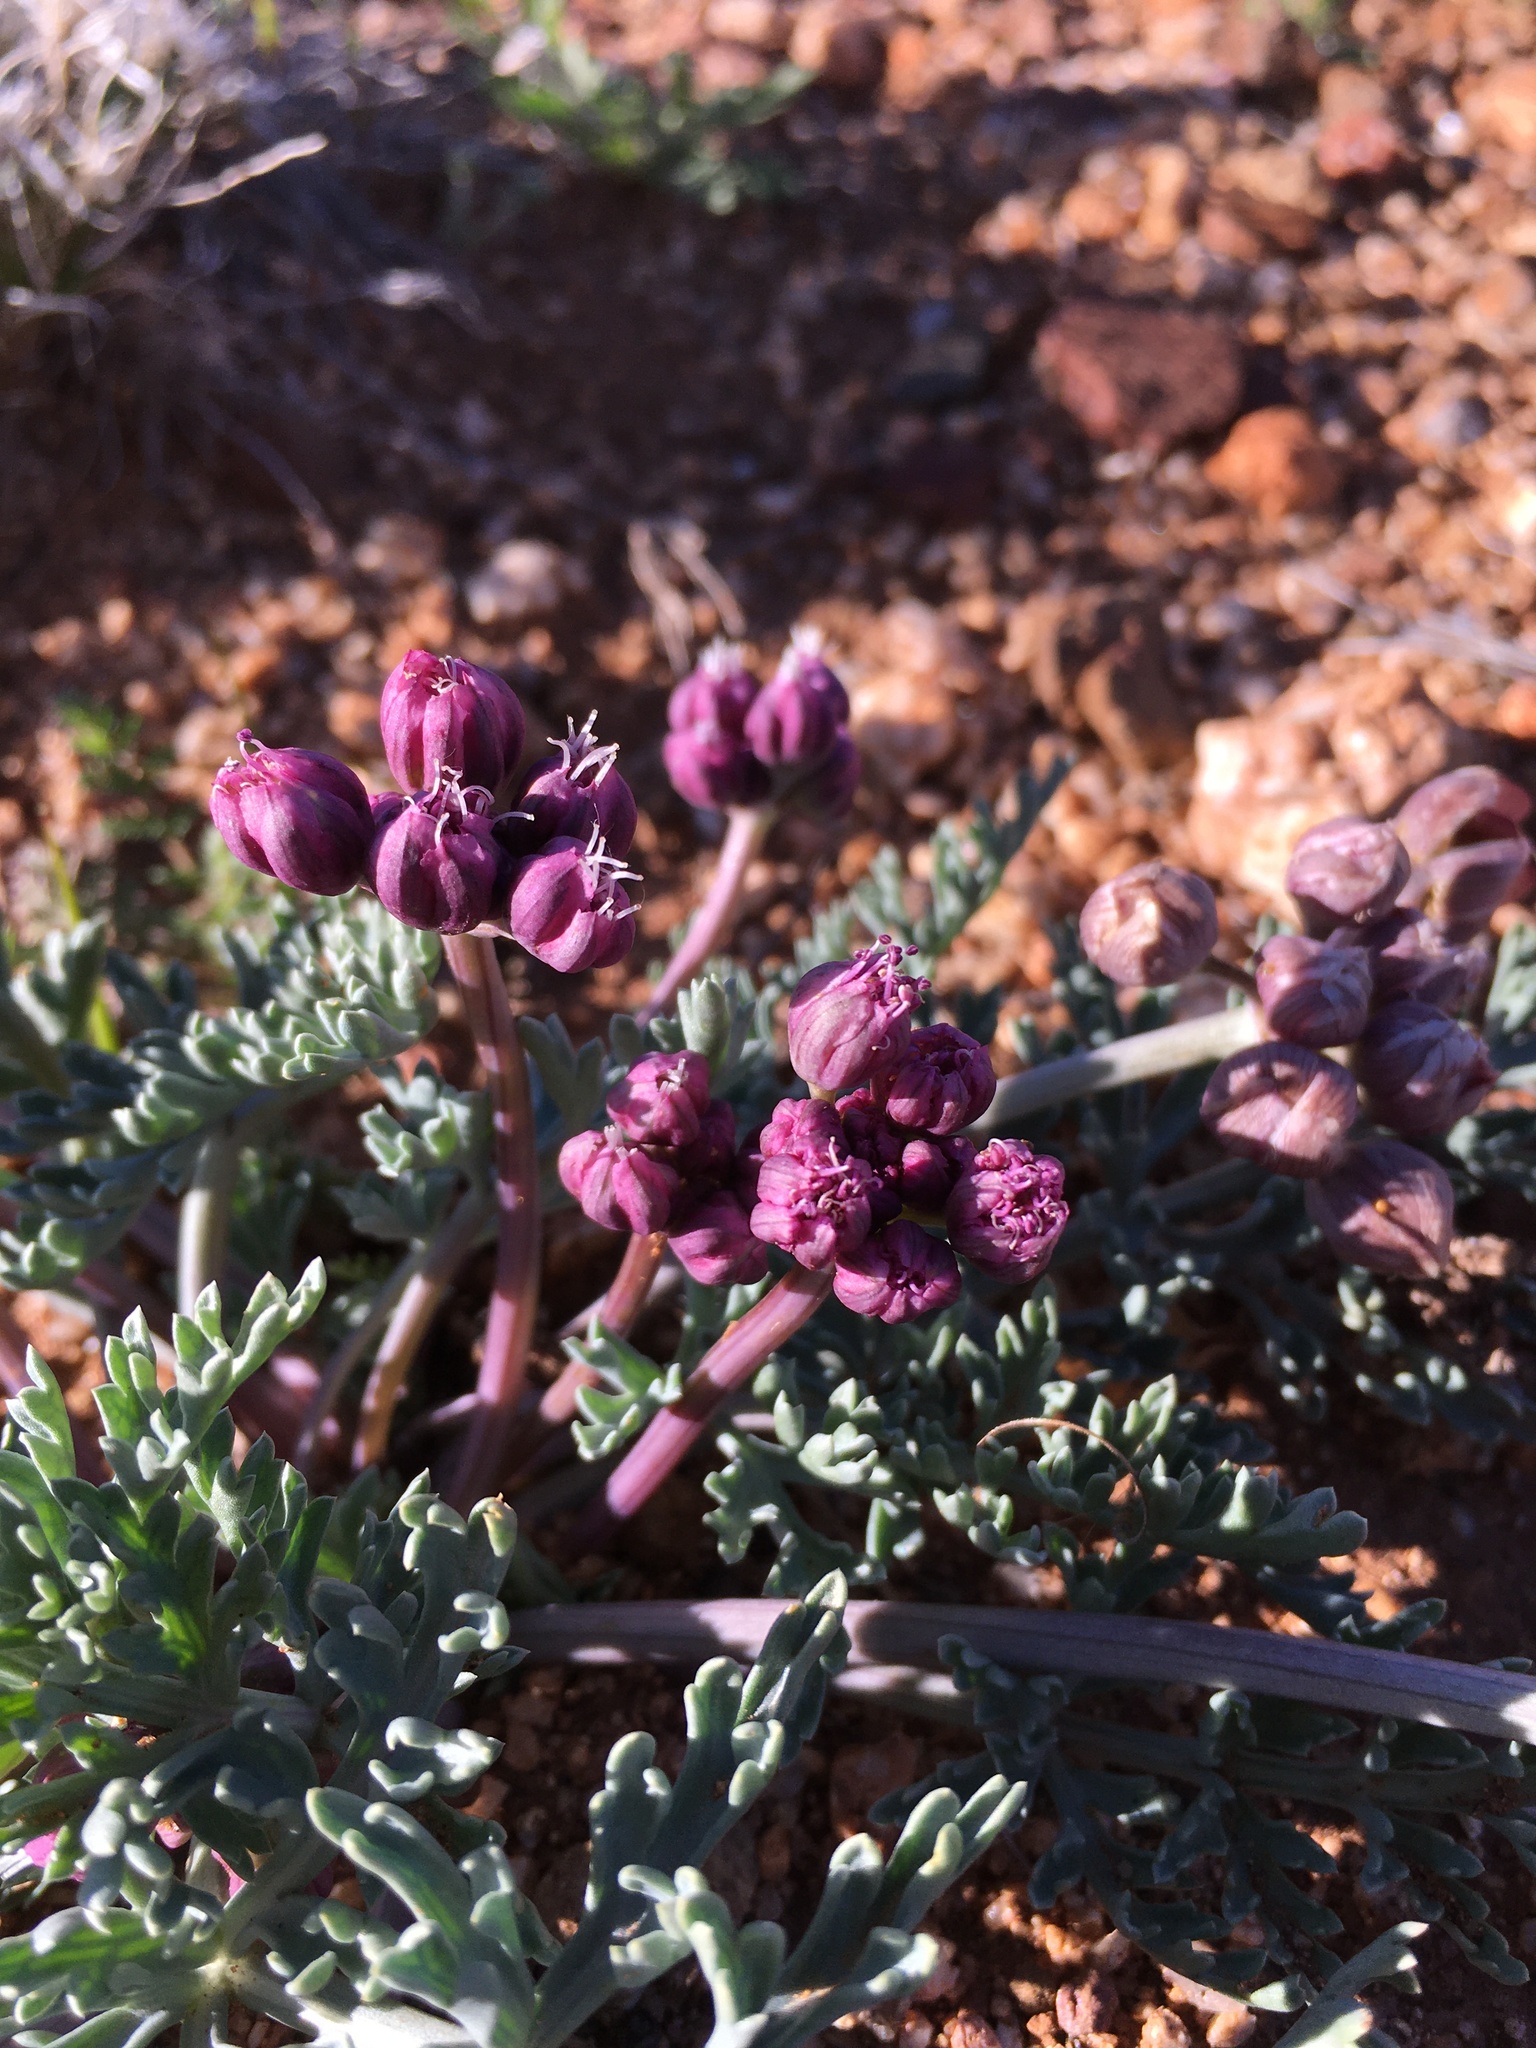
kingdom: Plantae
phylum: Tracheophyta
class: Magnoliopsida
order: Apiales
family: Apiaceae
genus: Vesper
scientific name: Vesper multinervatus
